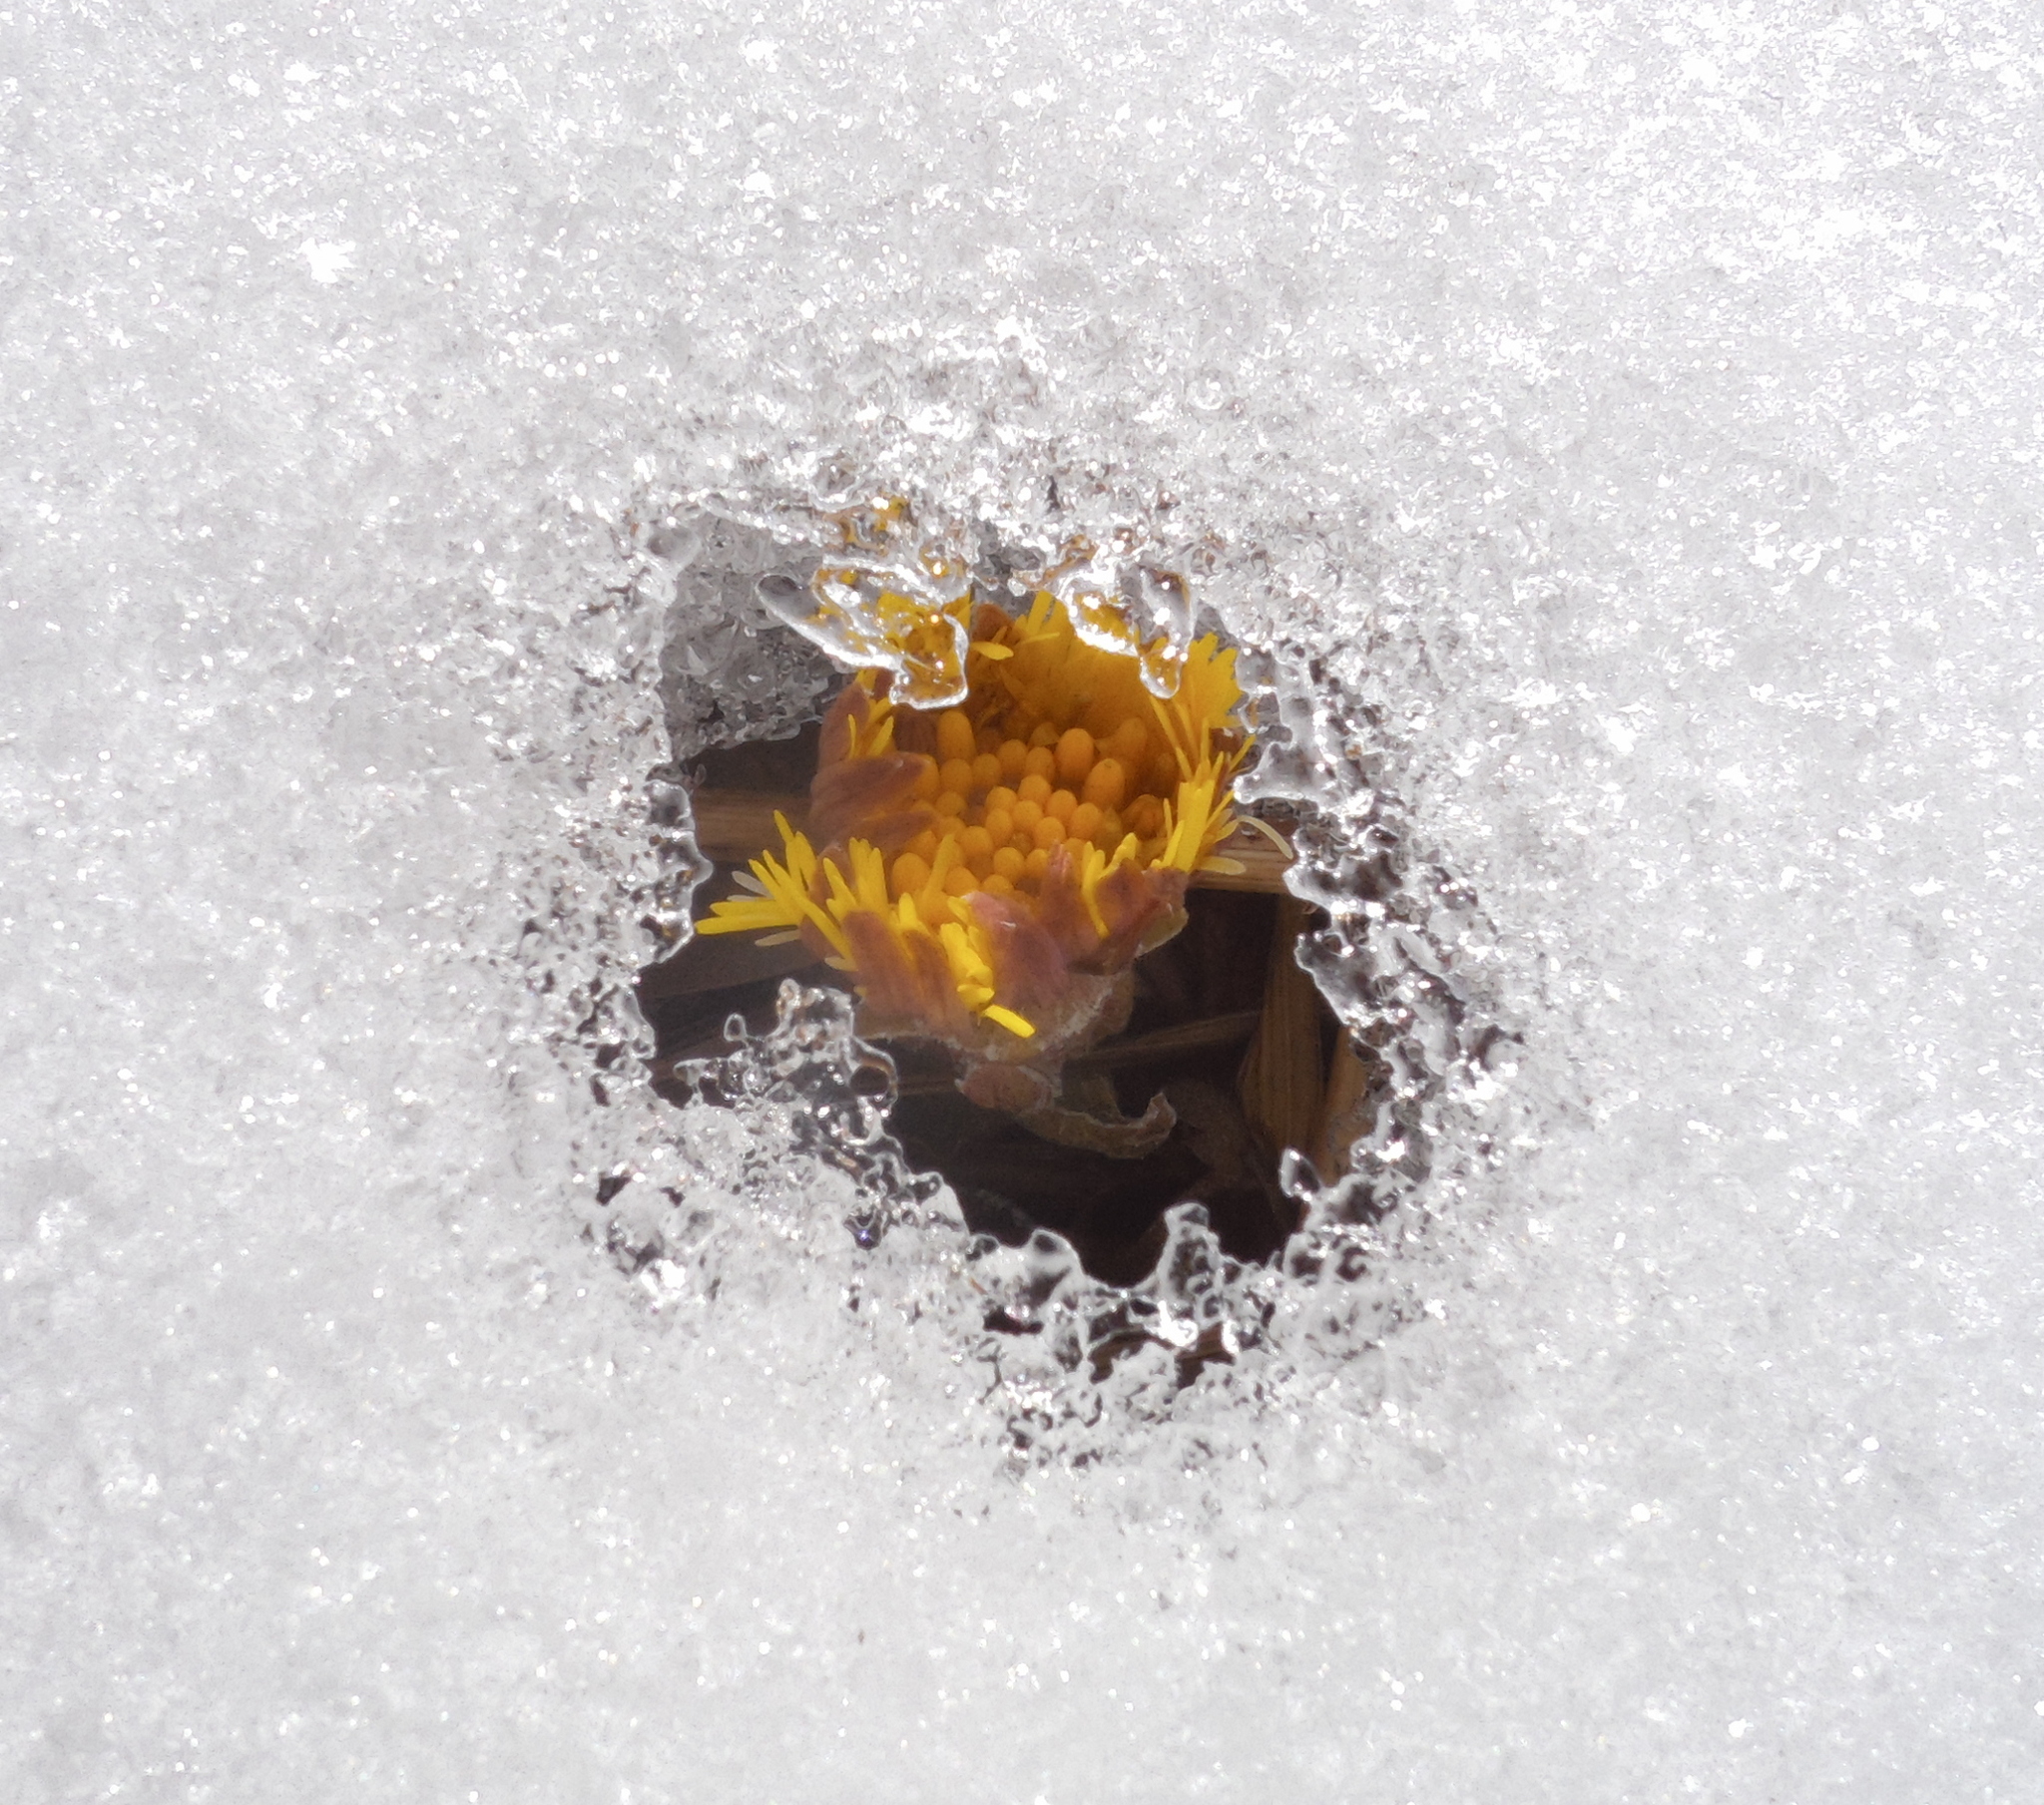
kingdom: Plantae
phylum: Tracheophyta
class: Magnoliopsida
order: Asterales
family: Asteraceae
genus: Tussilago
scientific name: Tussilago farfara
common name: Coltsfoot
